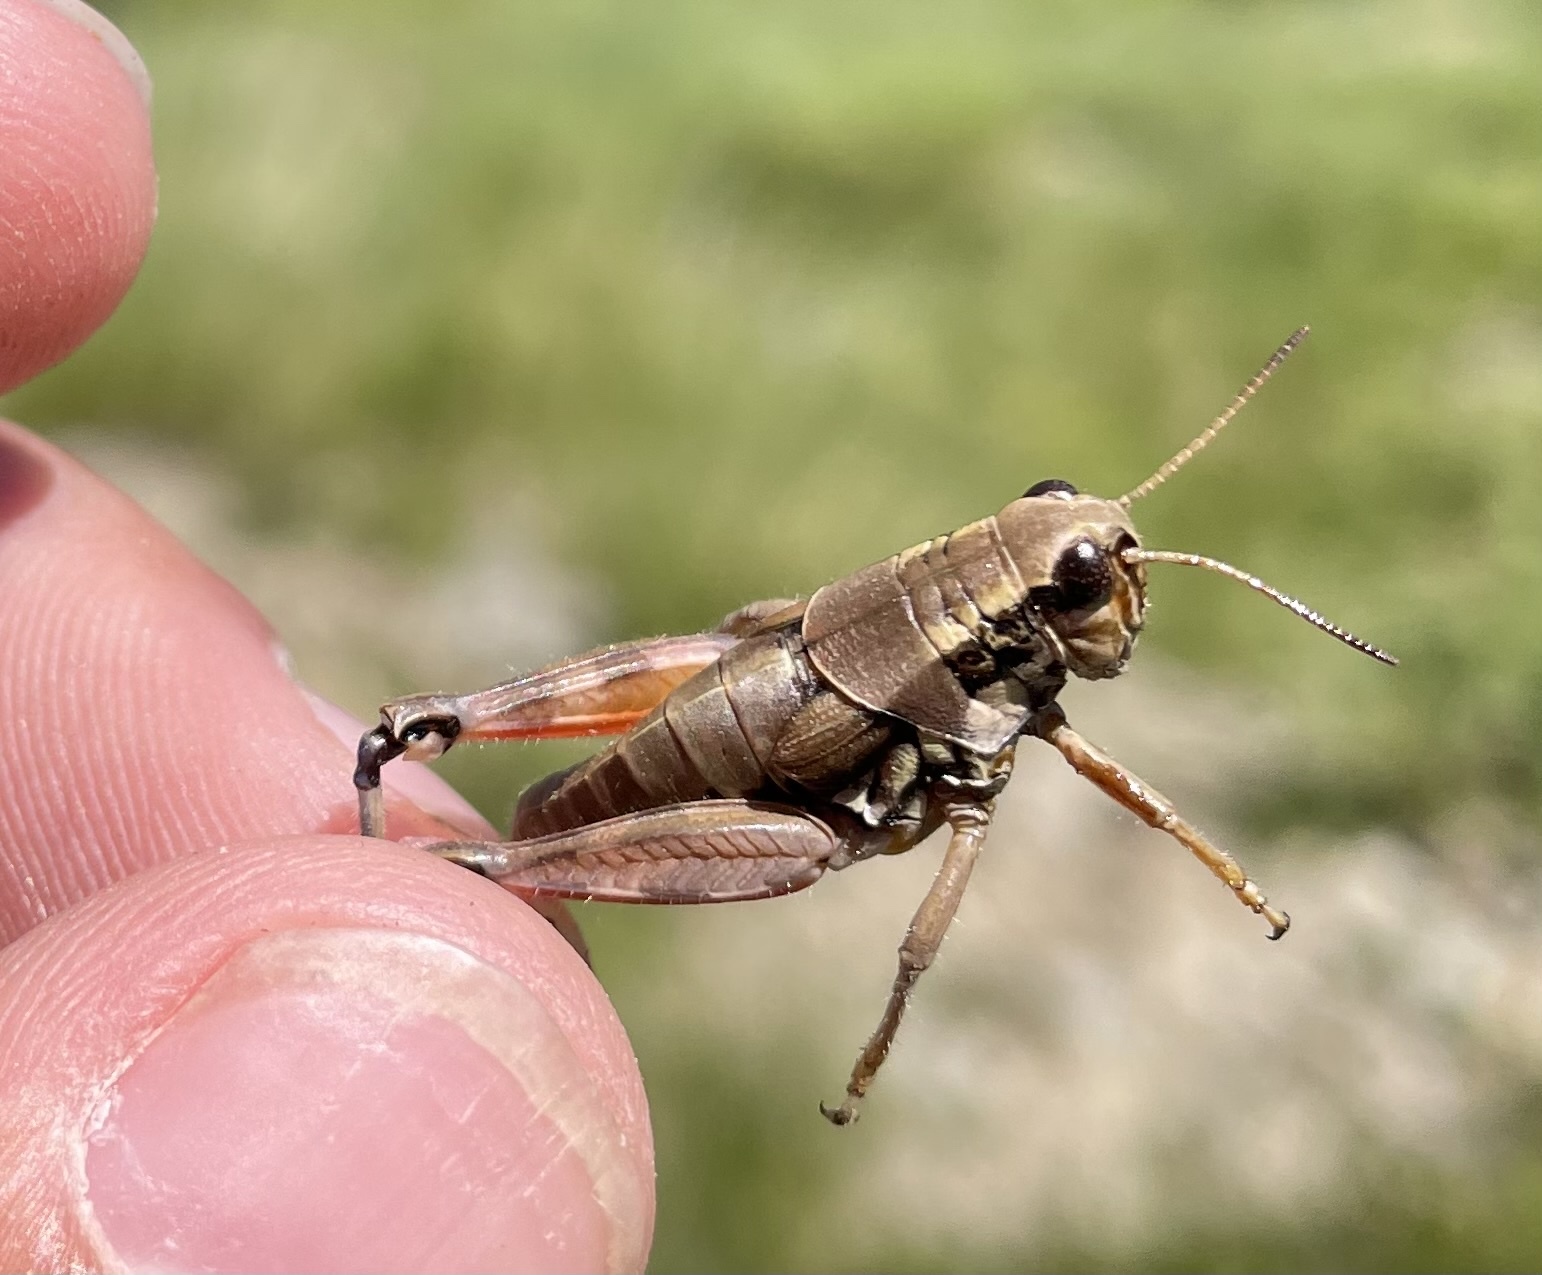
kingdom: Animalia
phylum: Arthropoda
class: Insecta
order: Orthoptera
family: Acrididae
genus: Podisma
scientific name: Podisma pedestris
